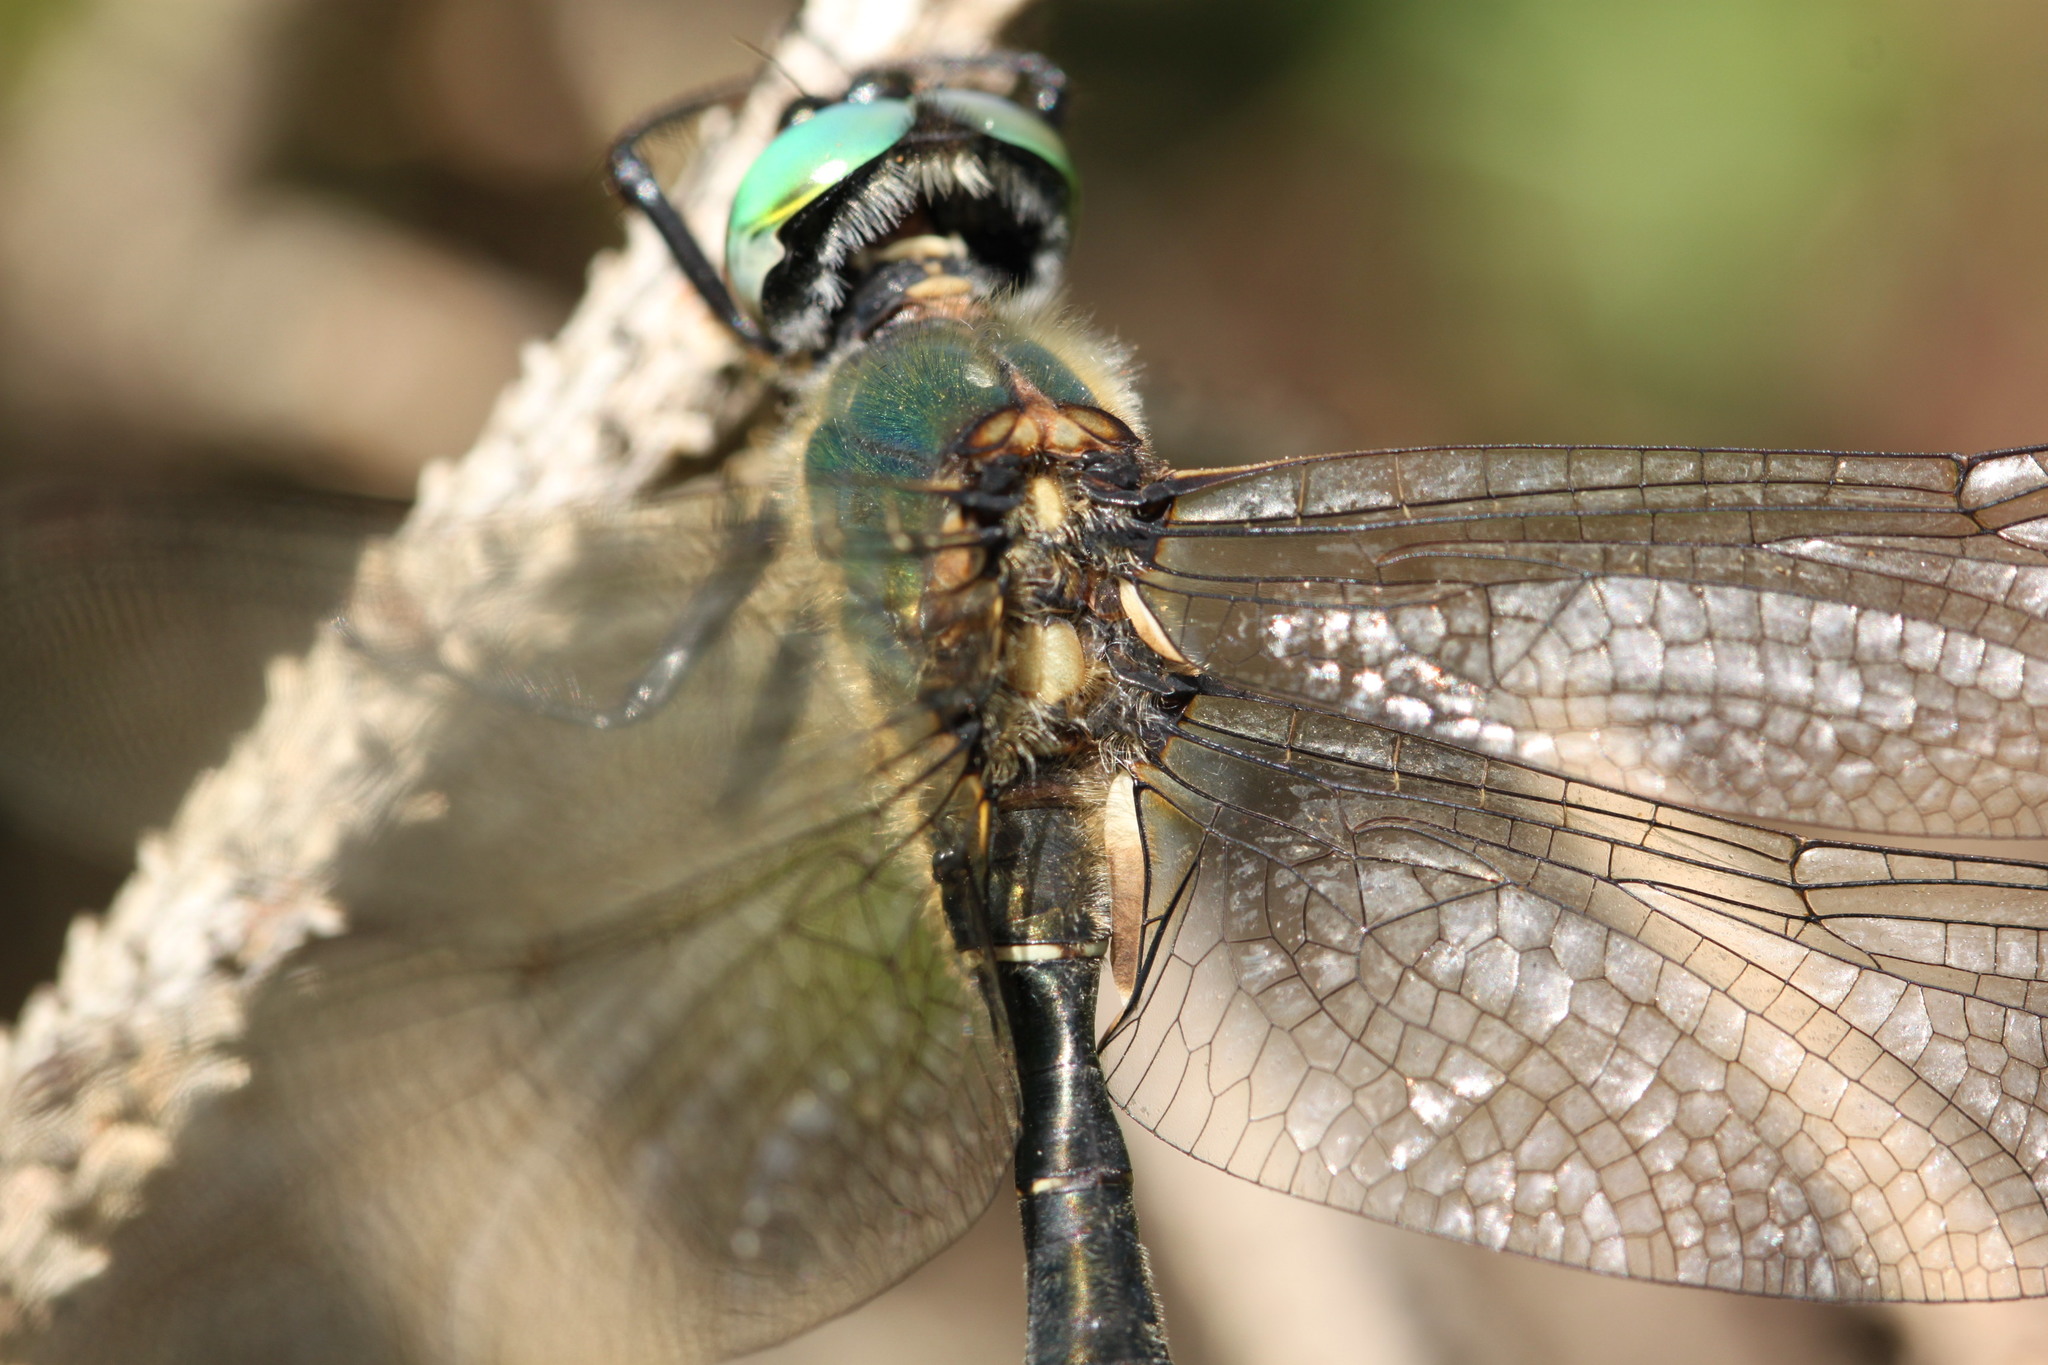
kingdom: Animalia
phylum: Arthropoda
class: Insecta
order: Odonata
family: Corduliidae
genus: Somatochlora
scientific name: Somatochlora alpestris
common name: Alpine emerald
